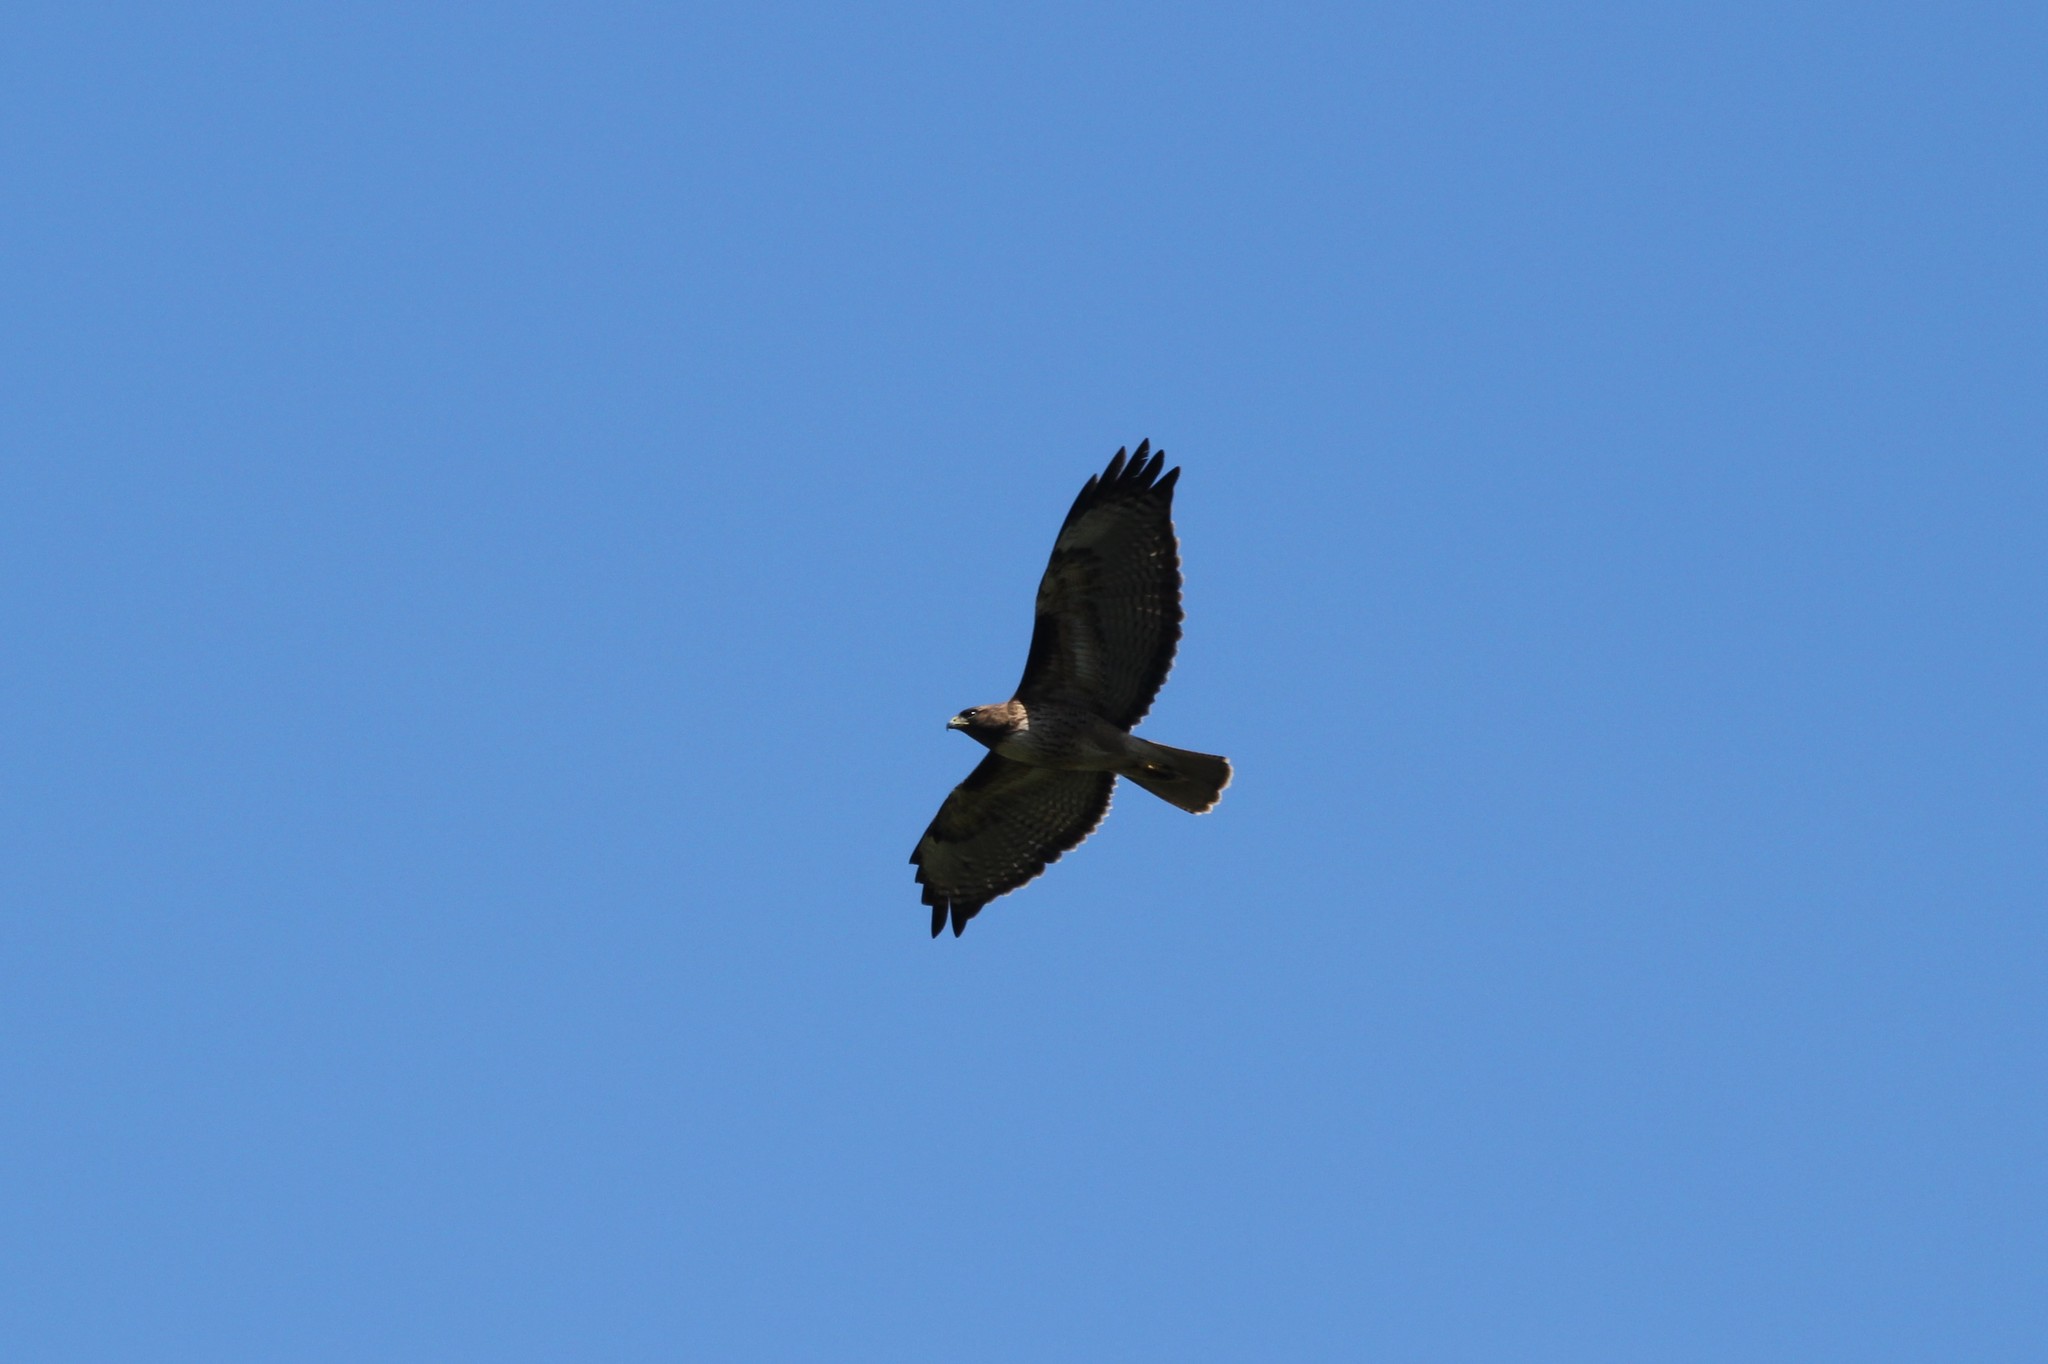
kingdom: Animalia
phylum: Chordata
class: Aves
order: Accipitriformes
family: Accipitridae
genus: Buteo
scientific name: Buteo jamaicensis
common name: Red-tailed hawk
